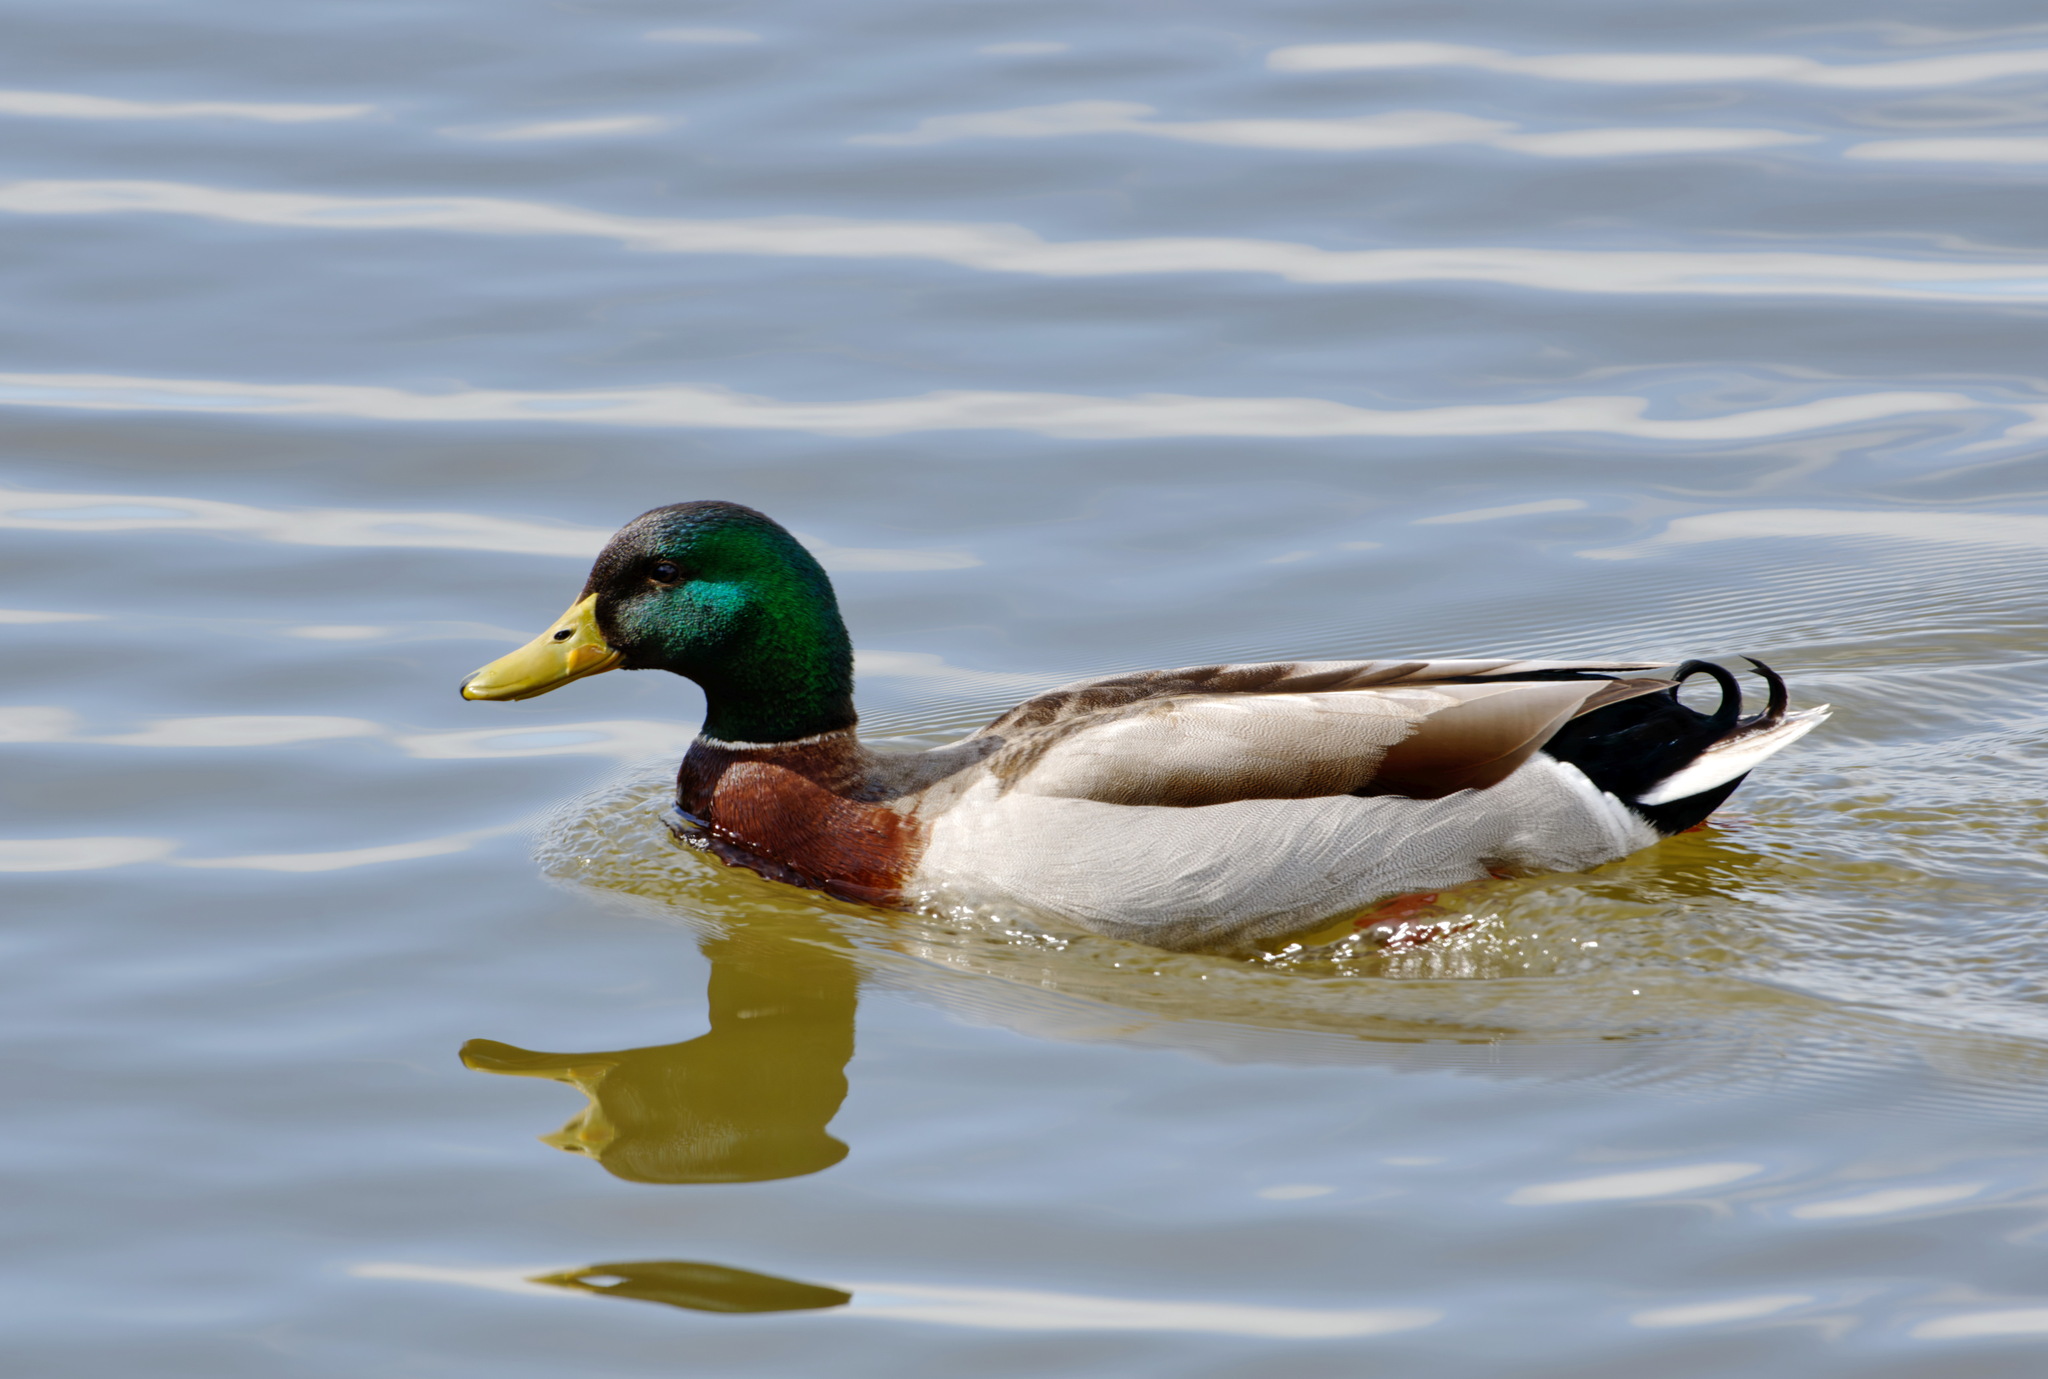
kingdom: Animalia
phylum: Chordata
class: Aves
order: Anseriformes
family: Anatidae
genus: Anas
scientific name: Anas platyrhynchos
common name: Mallard
